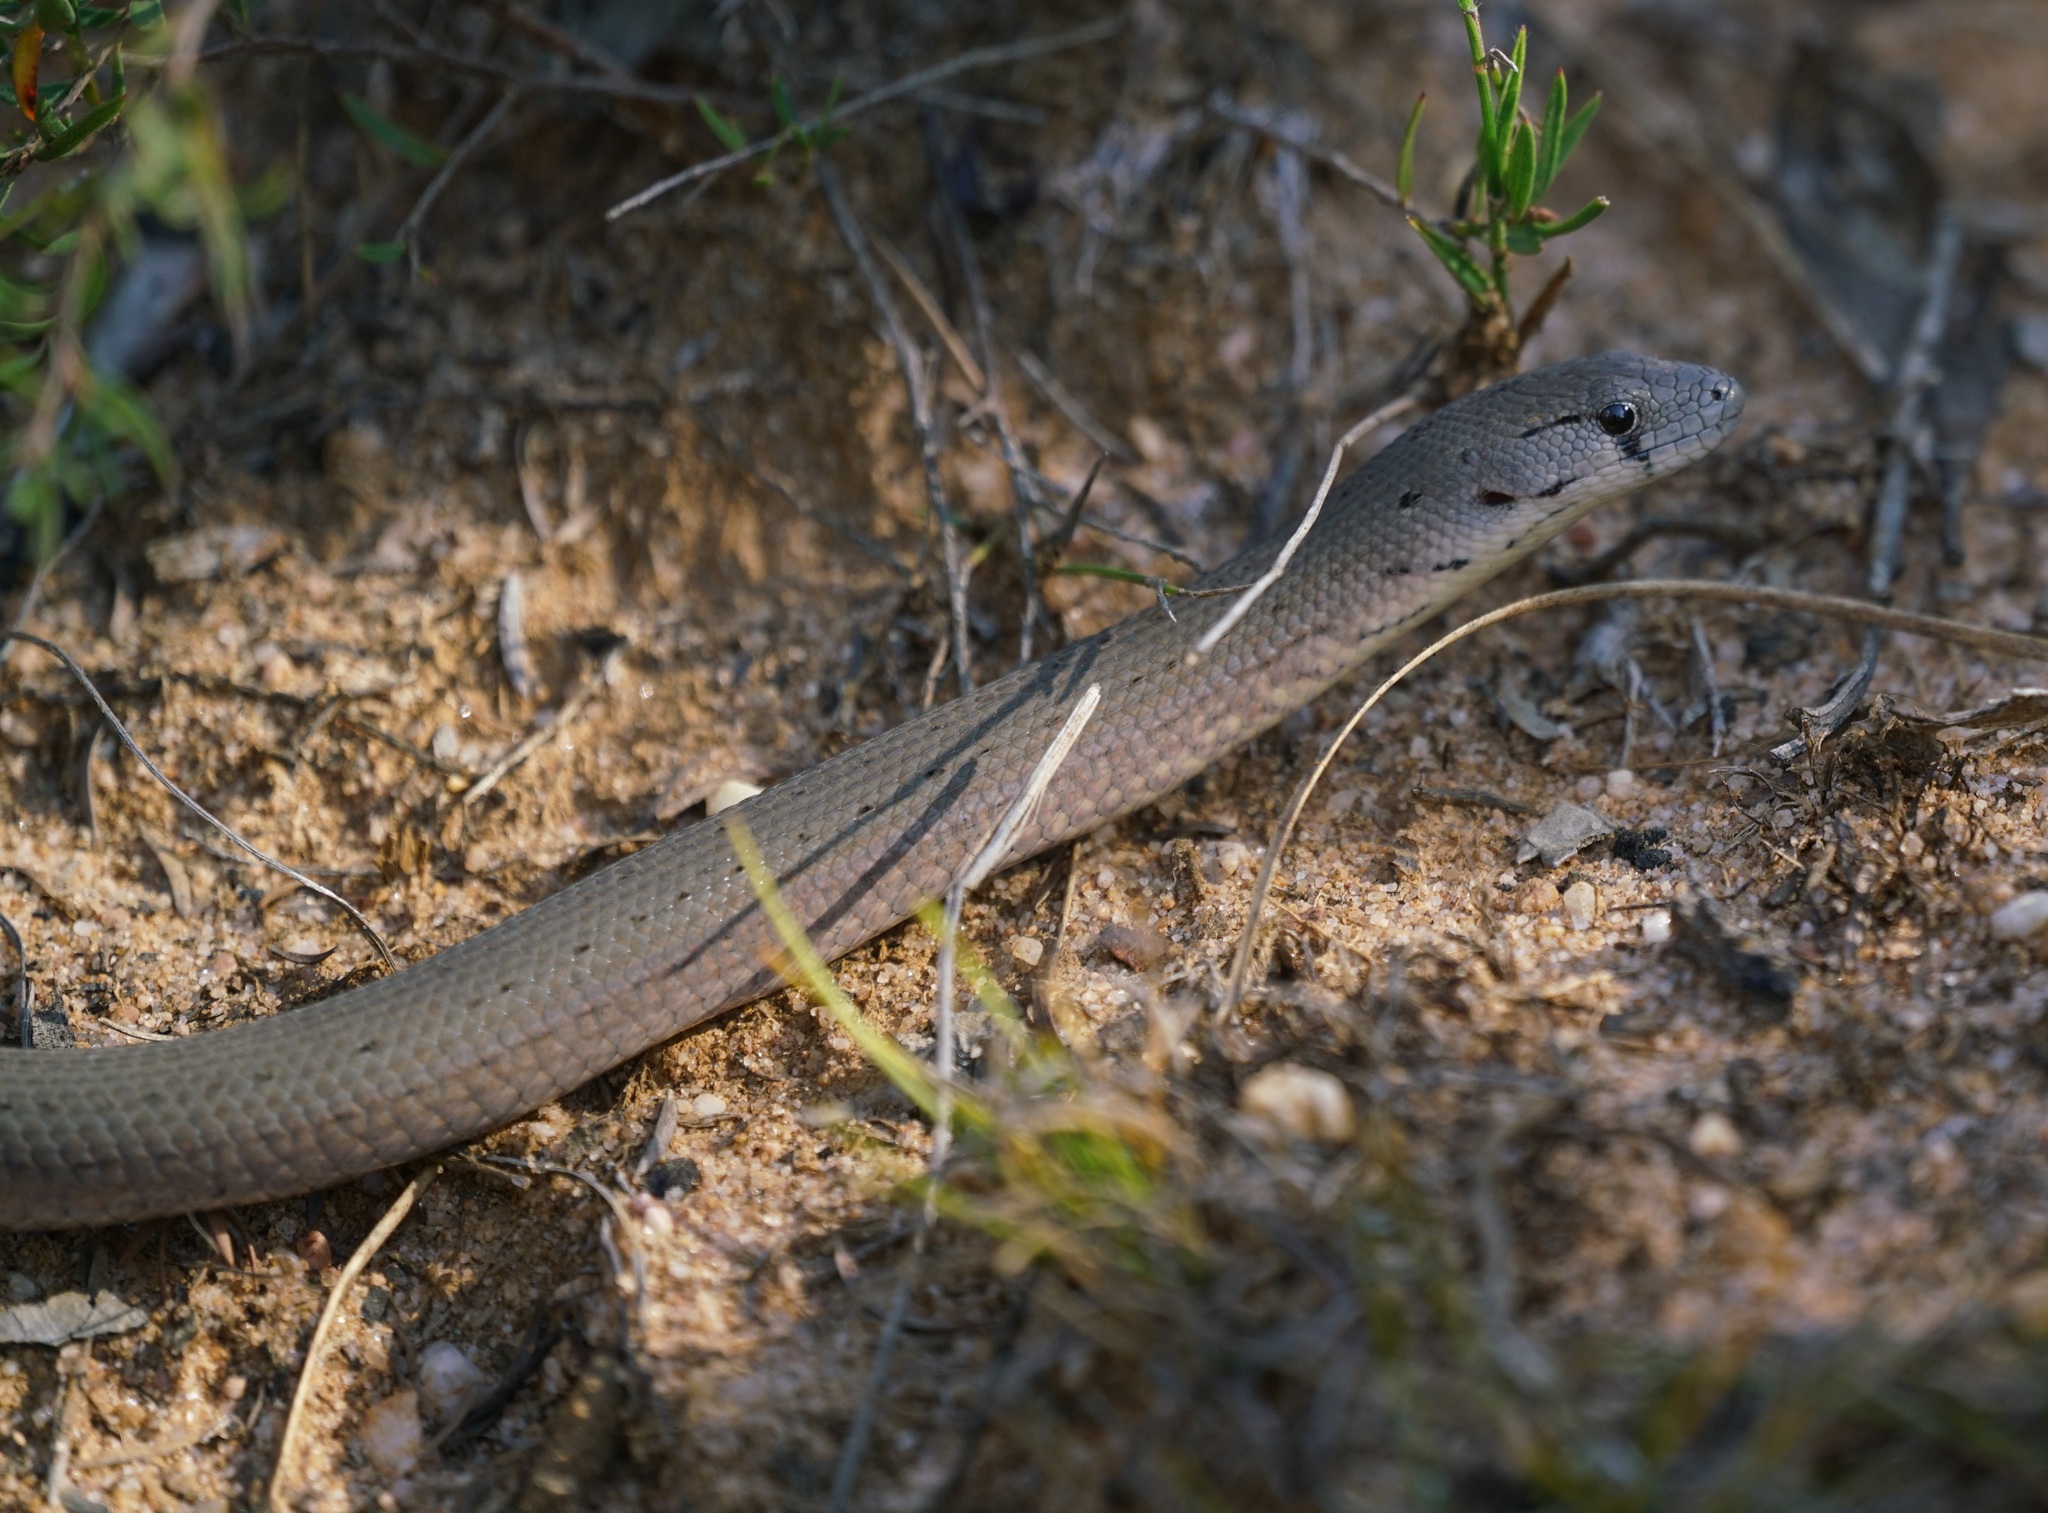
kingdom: Animalia
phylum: Chordata
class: Squamata
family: Pygopodidae
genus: Pygopus
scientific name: Pygopus lepidopodus
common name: Southern scaly-foot
